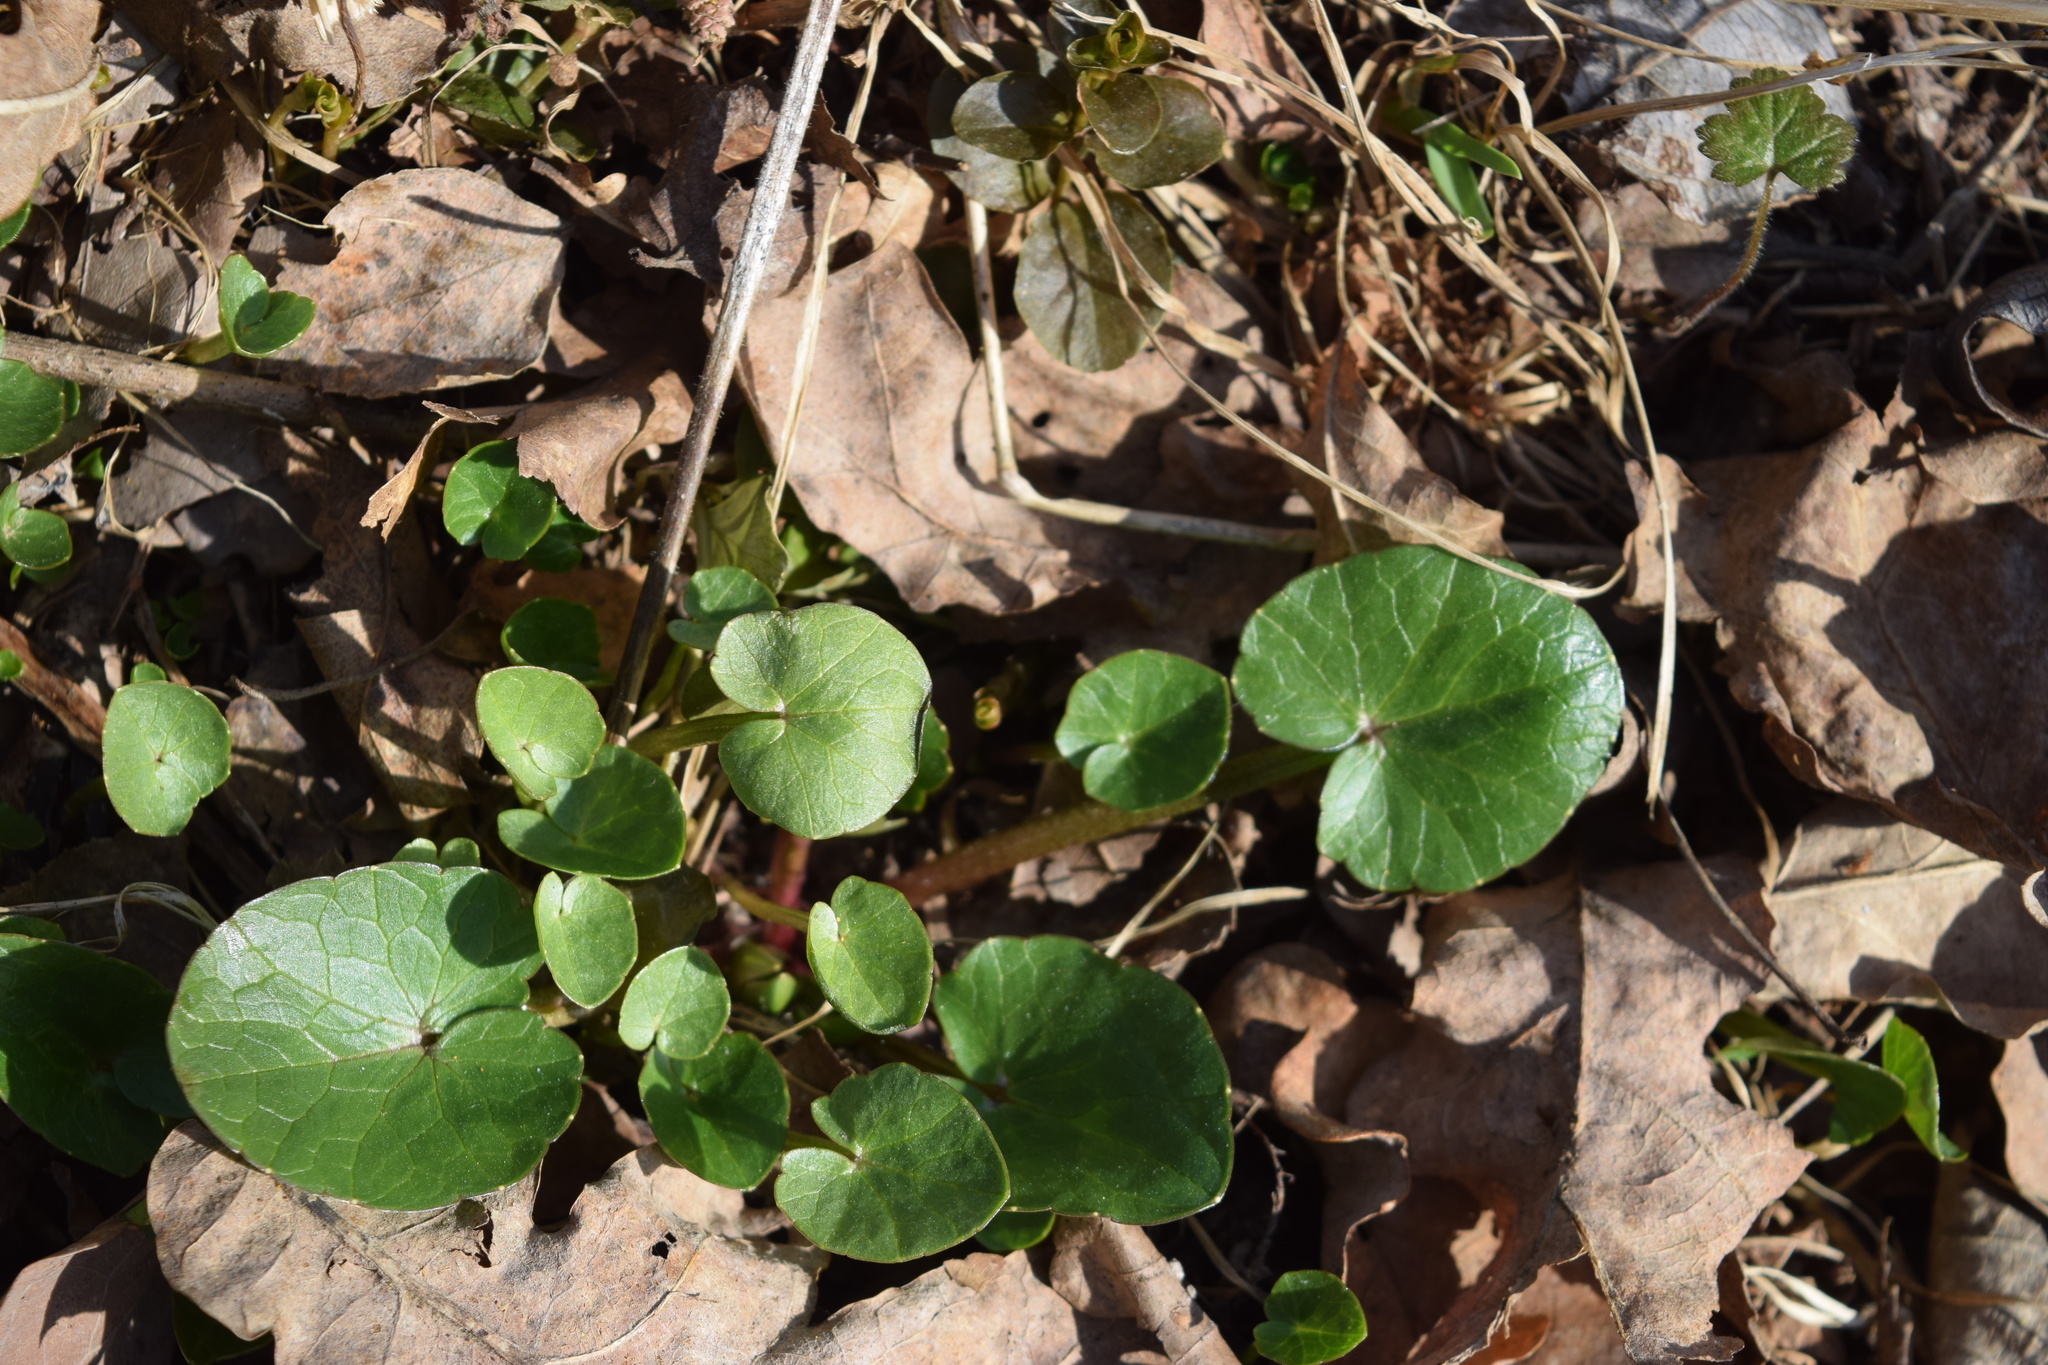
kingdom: Plantae
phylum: Tracheophyta
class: Magnoliopsida
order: Ranunculales
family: Ranunculaceae
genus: Ficaria
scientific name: Ficaria verna
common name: Lesser celandine
